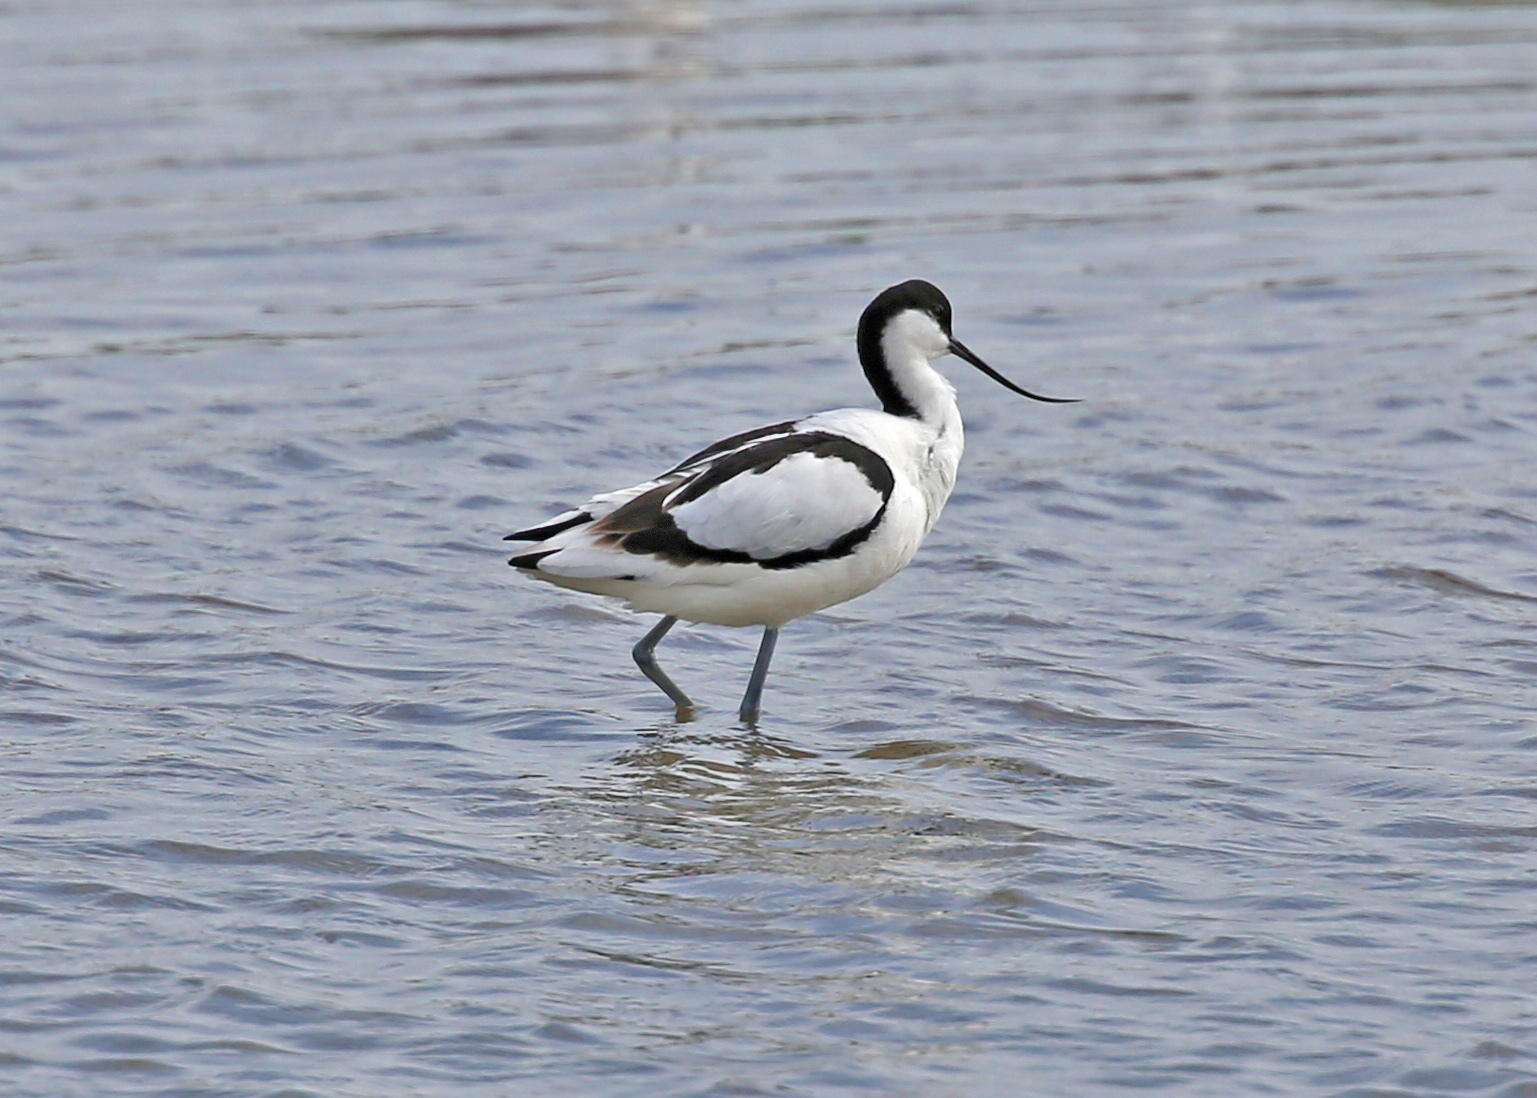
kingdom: Animalia
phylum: Chordata
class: Aves
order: Charadriiformes
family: Recurvirostridae
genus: Recurvirostra
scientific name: Recurvirostra avosetta
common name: Pied avocet
